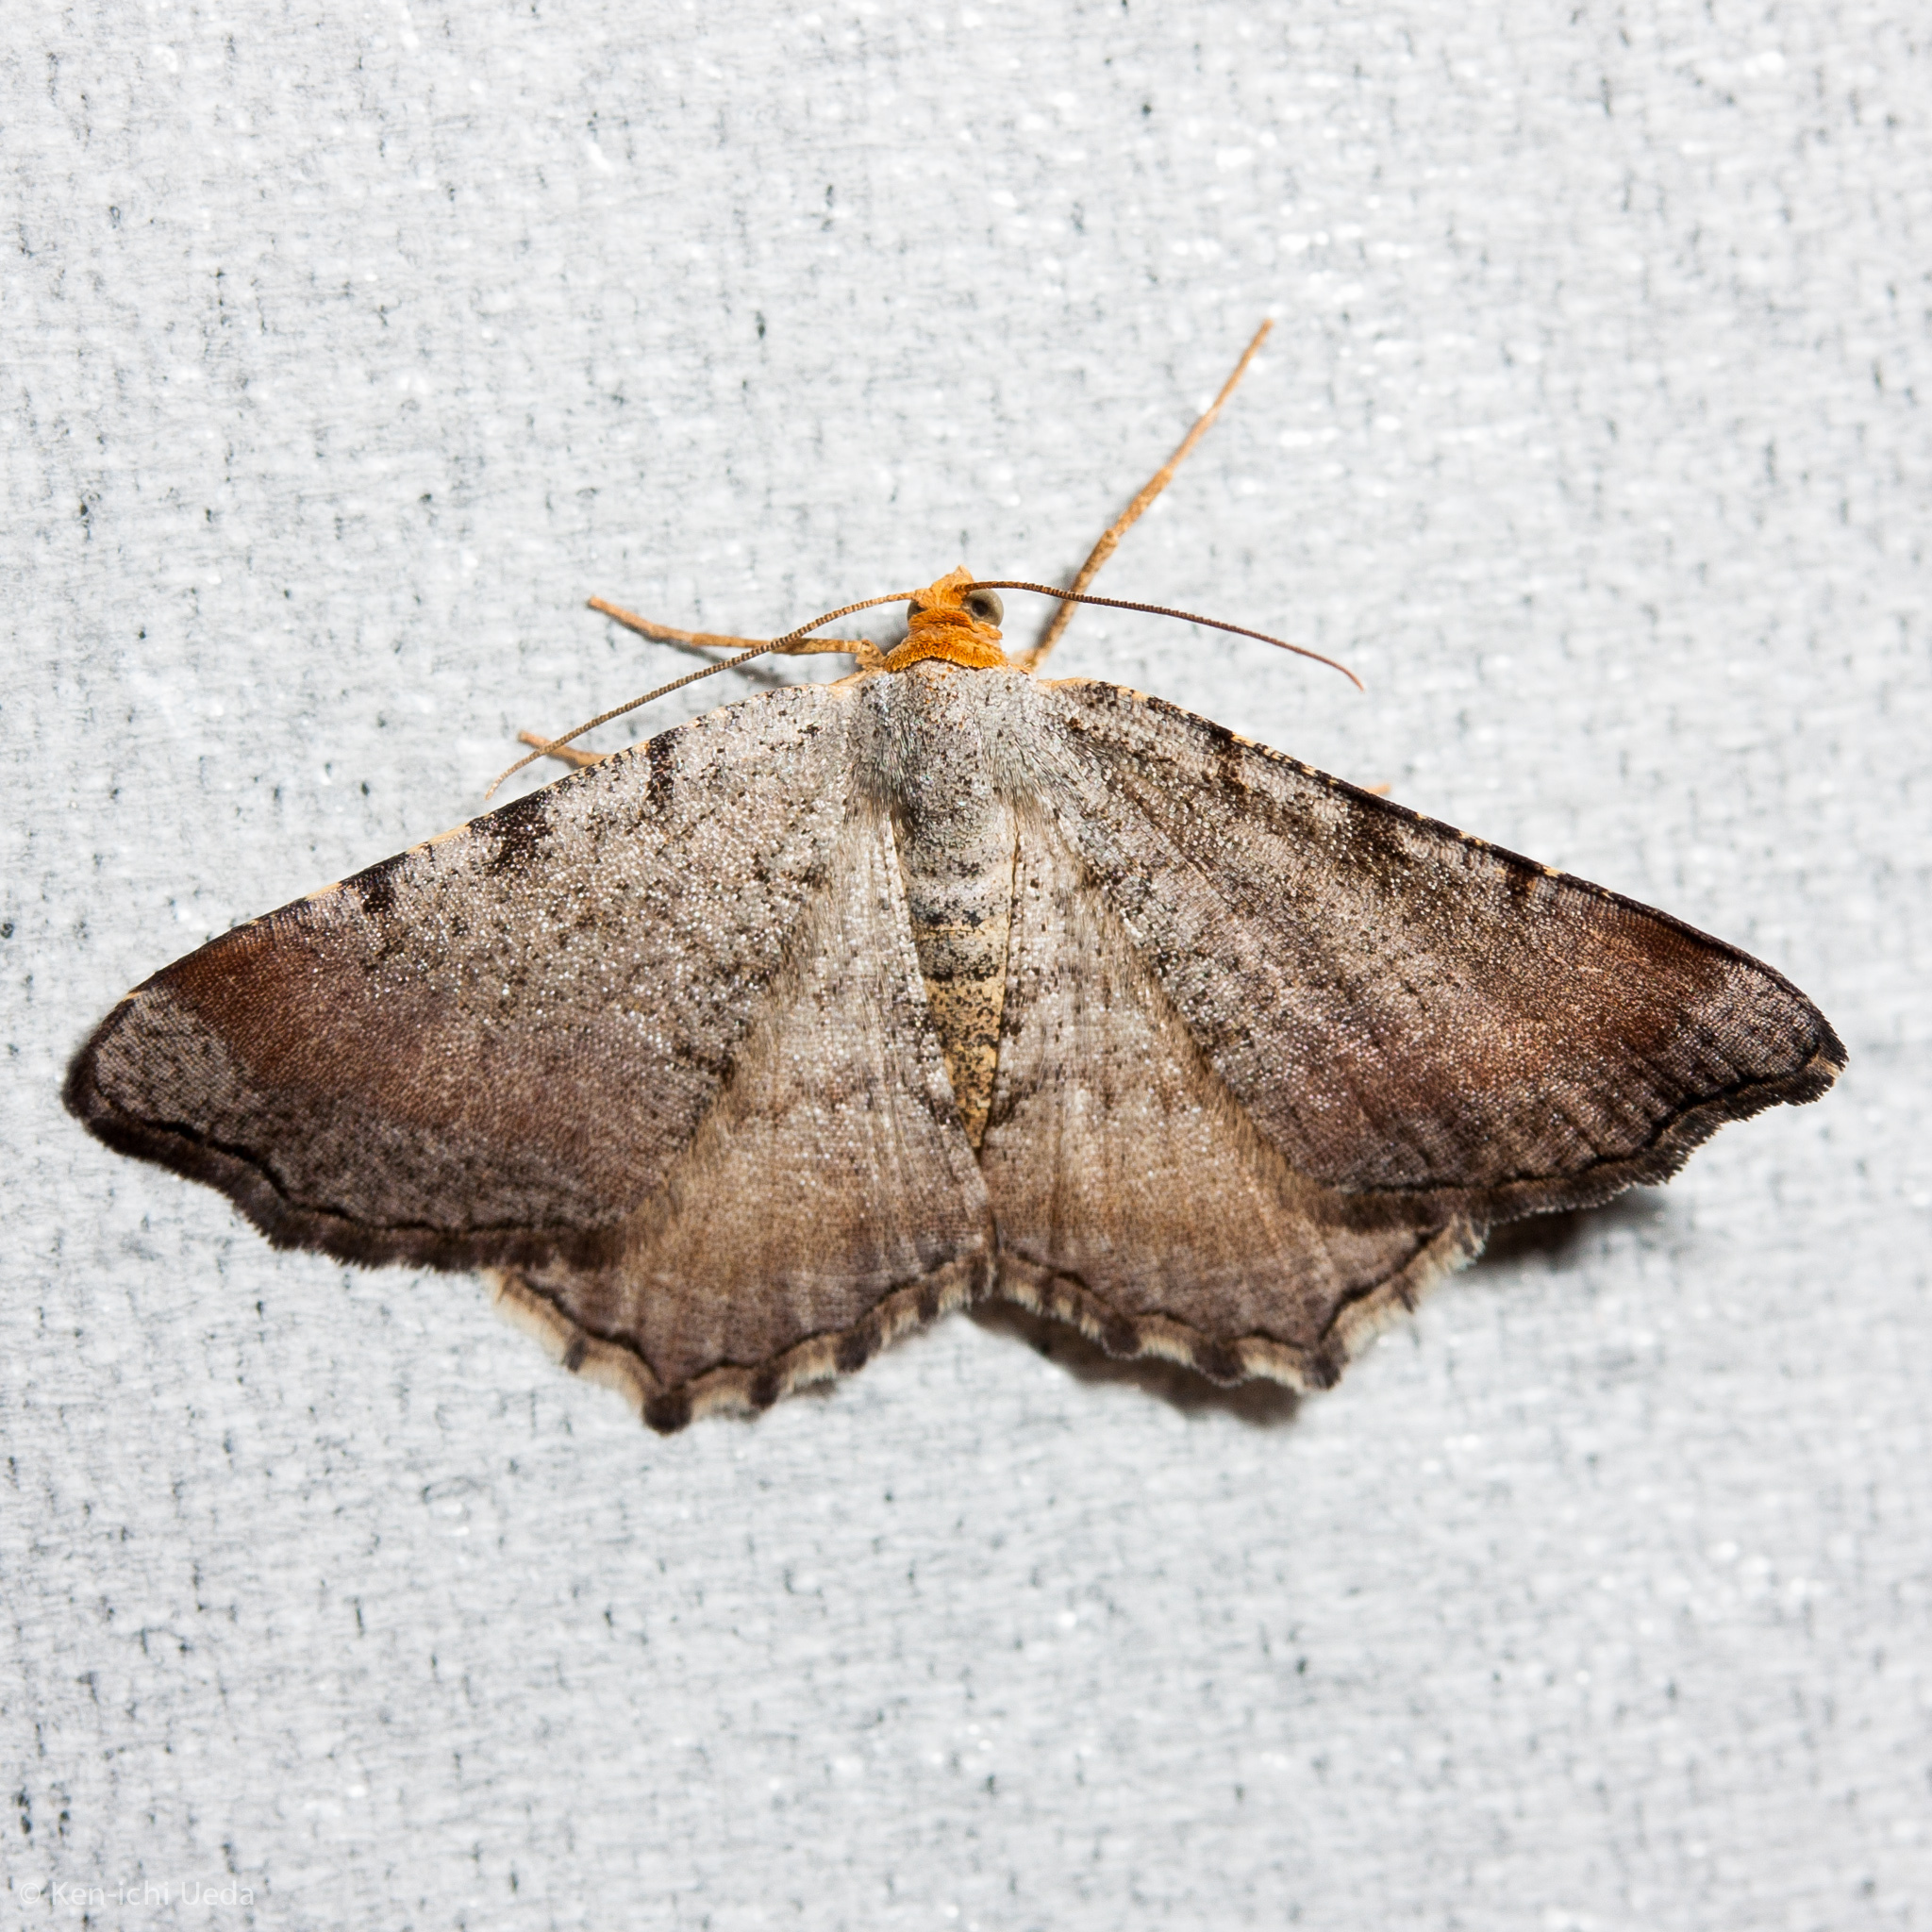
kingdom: Animalia
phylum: Arthropoda
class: Insecta
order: Lepidoptera
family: Geometridae
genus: Macaria
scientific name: Macaria transitaria
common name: Blurry chocolate angle
